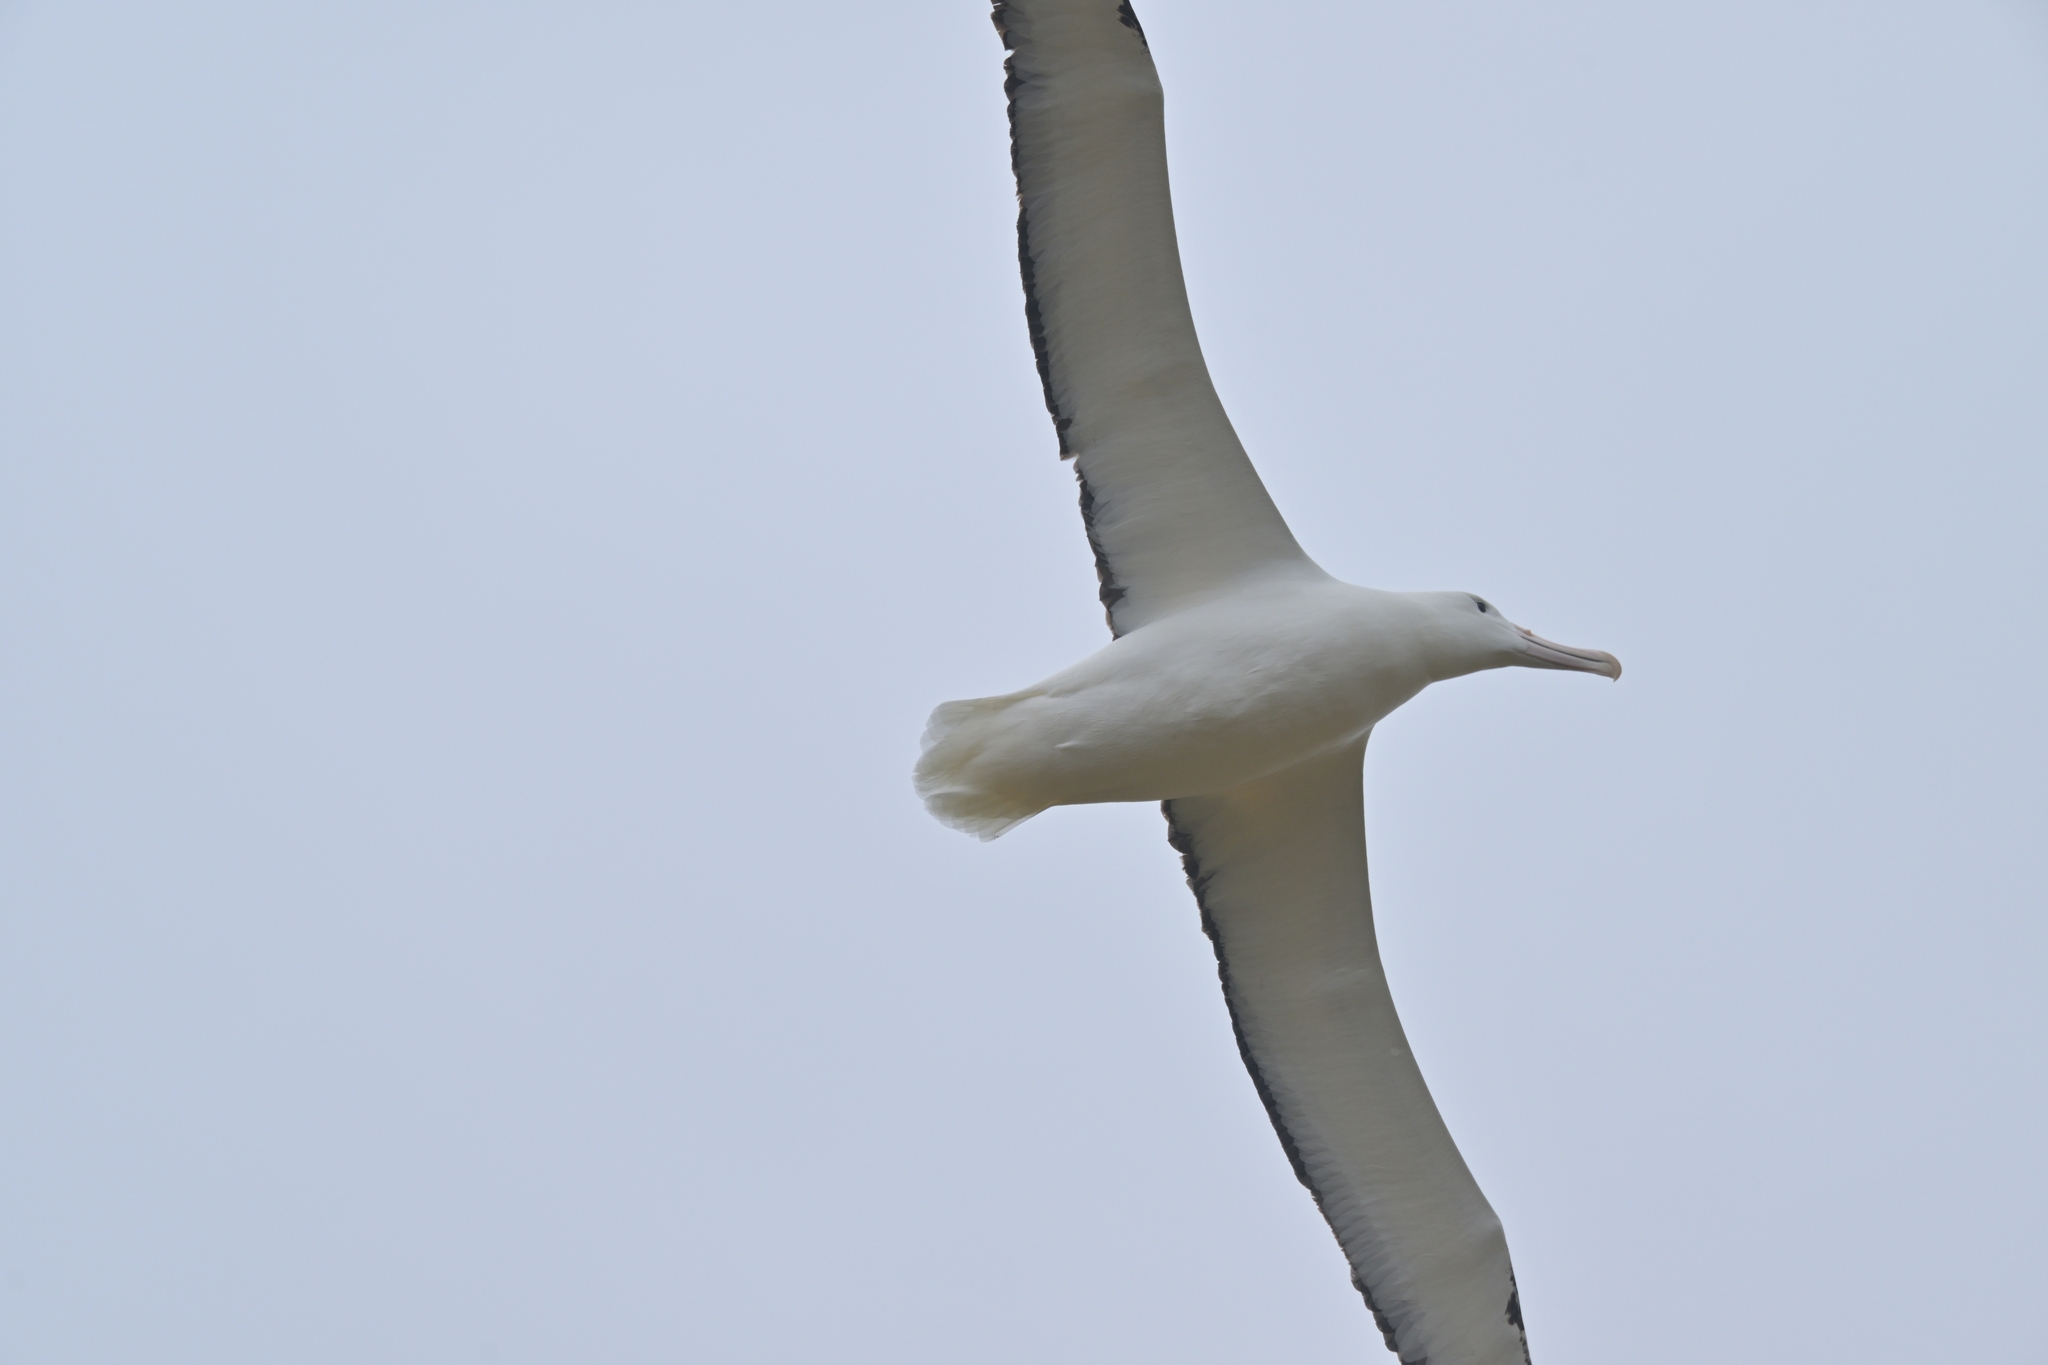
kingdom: Animalia
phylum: Chordata
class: Aves
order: Procellariiformes
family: Diomedeidae
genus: Diomedea
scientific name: Diomedea epomophora
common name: Southern royal albatross
